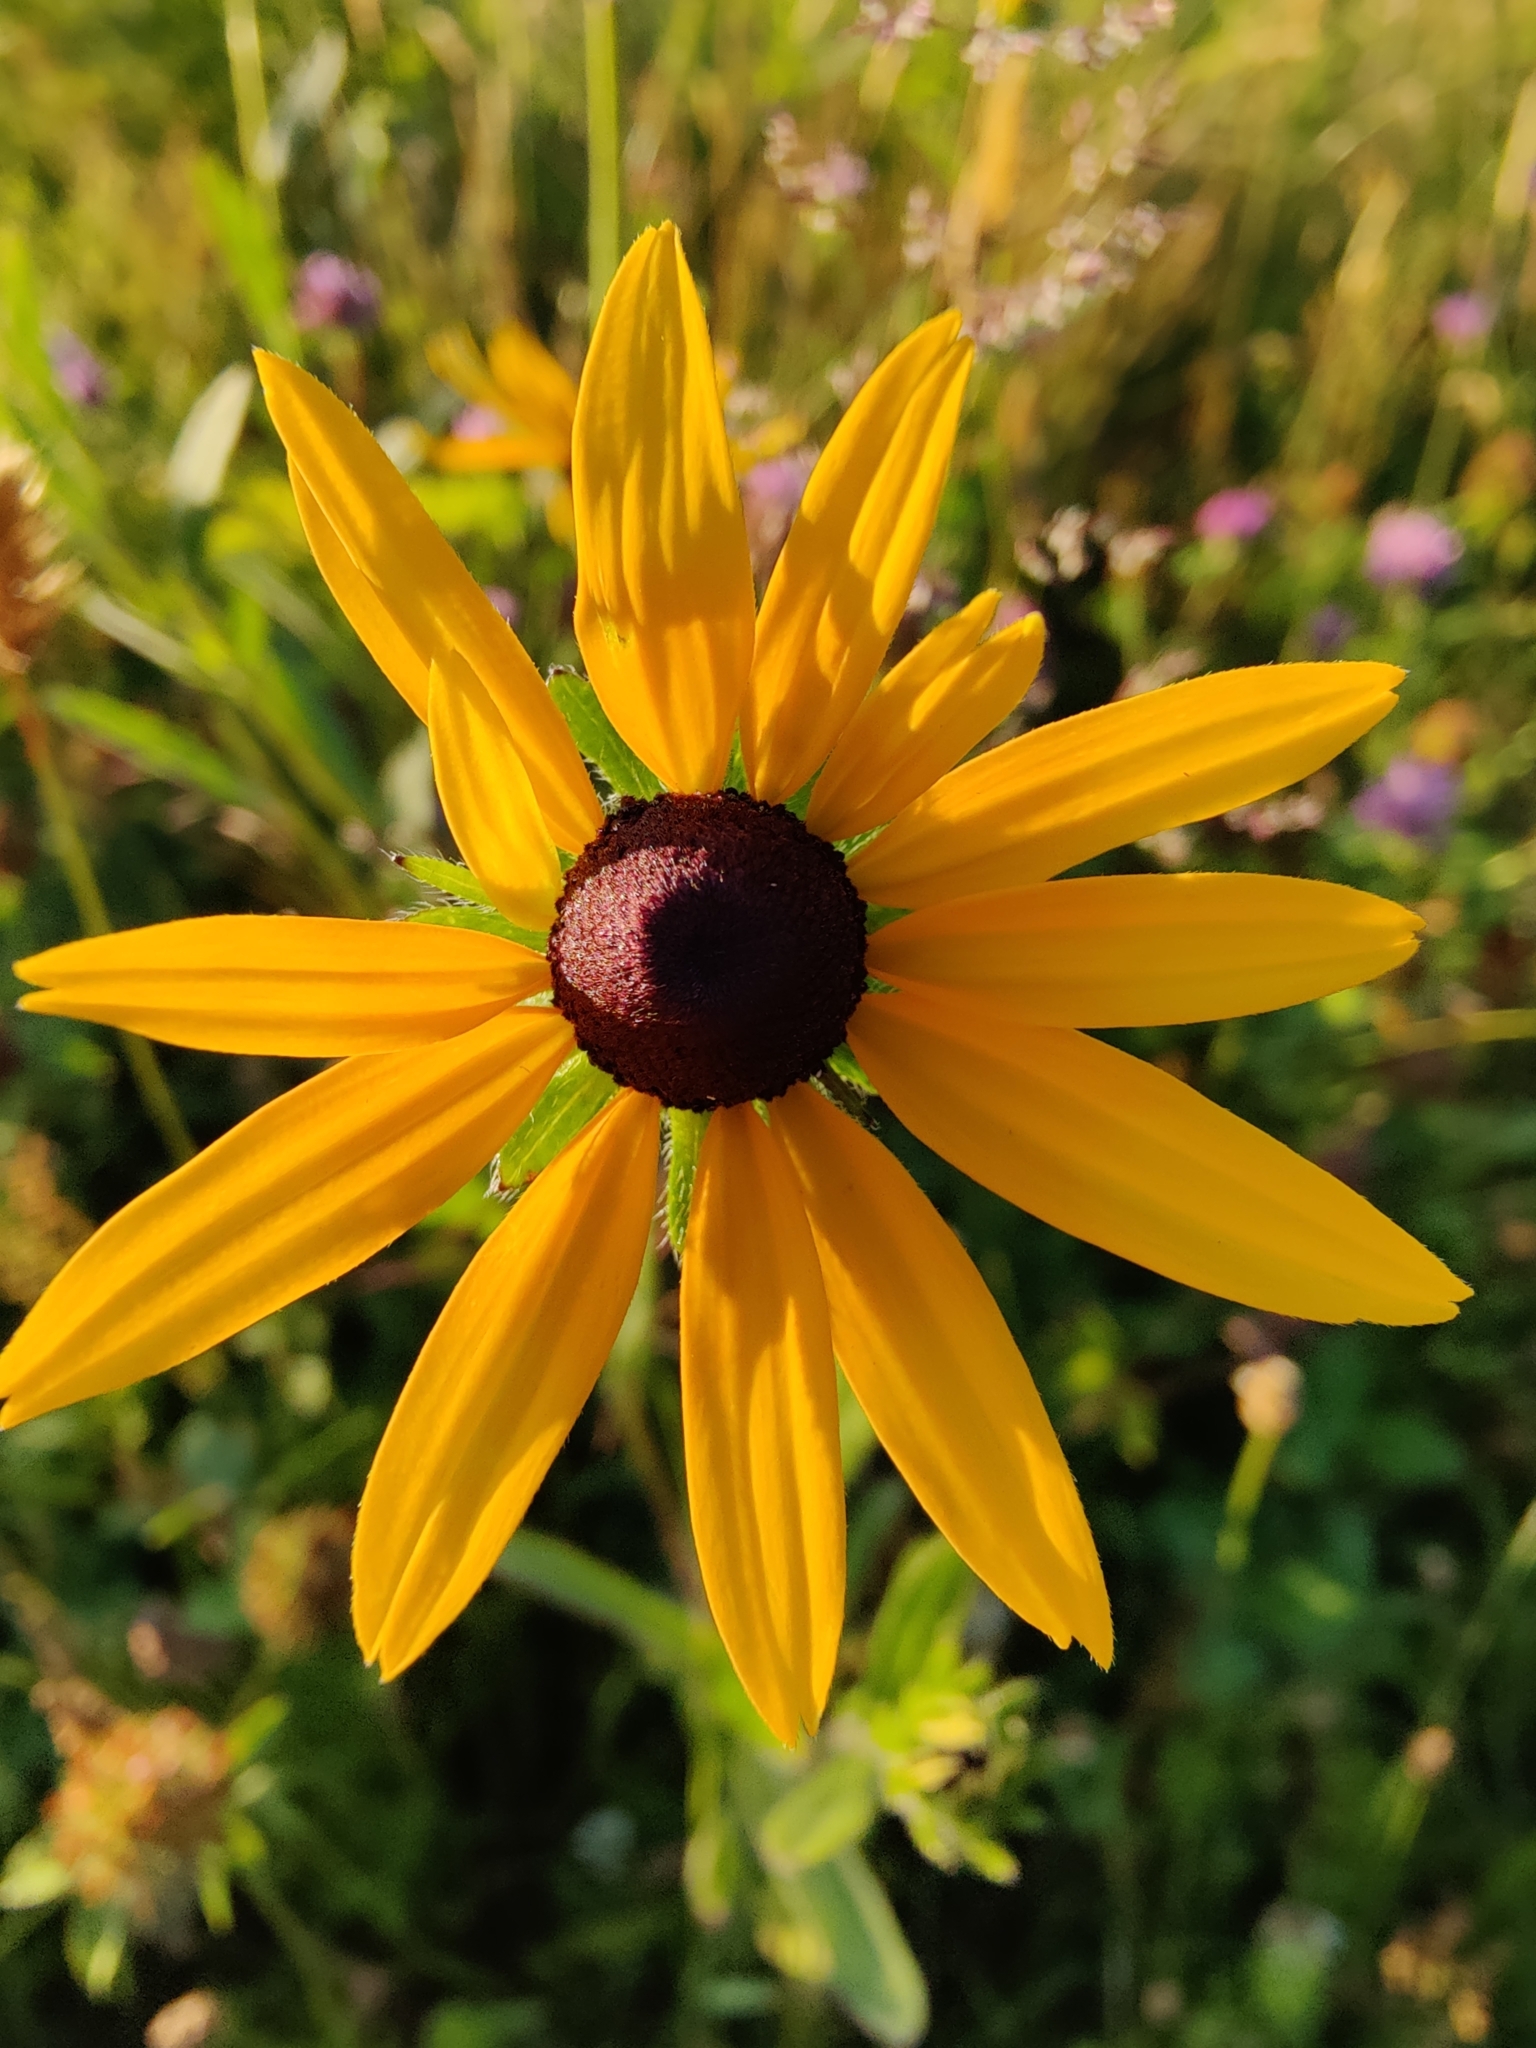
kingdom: Plantae
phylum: Tracheophyta
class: Magnoliopsida
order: Asterales
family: Asteraceae
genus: Rudbeckia
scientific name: Rudbeckia hirta
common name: Black-eyed-susan
